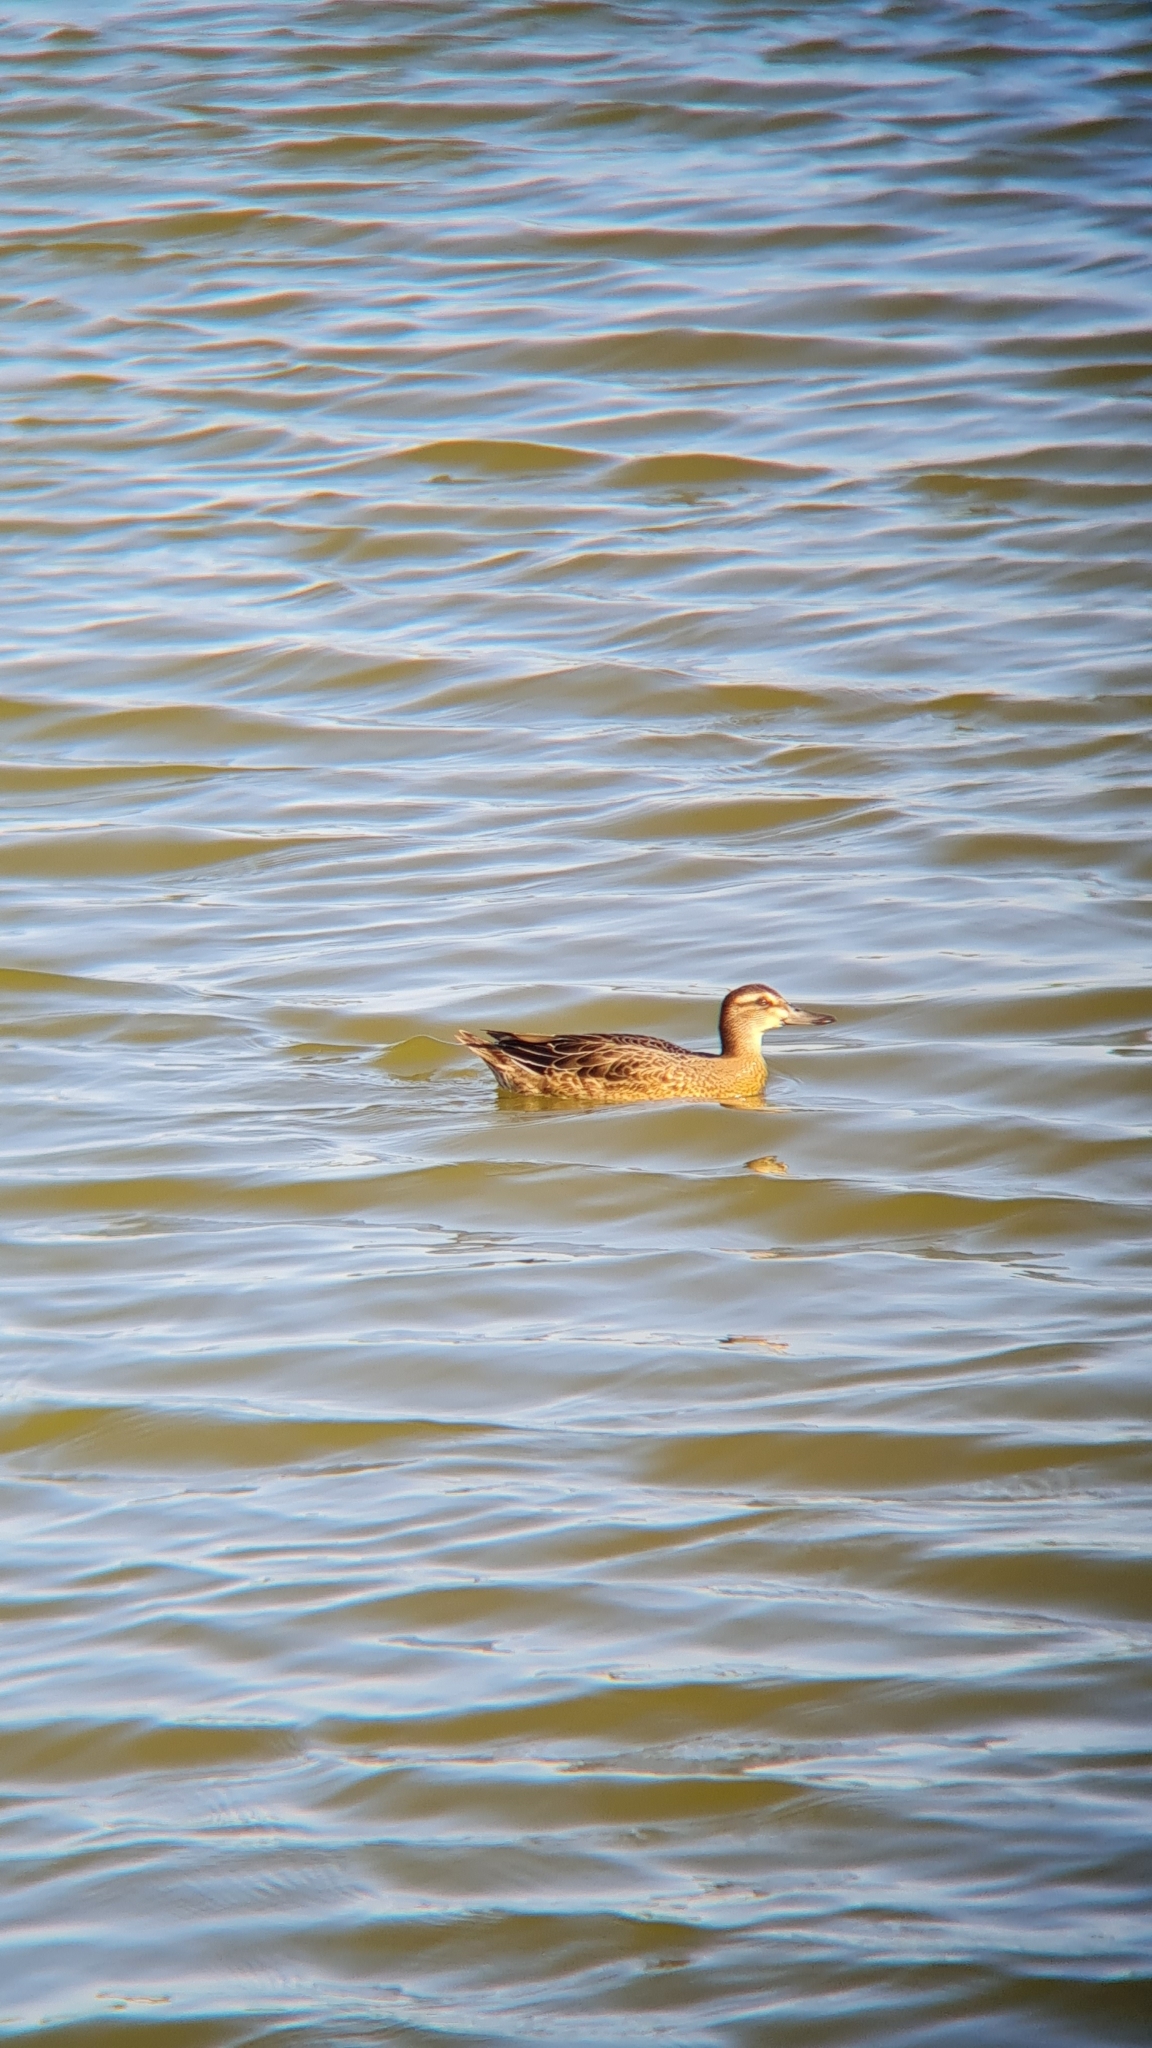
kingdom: Animalia
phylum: Chordata
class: Aves
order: Anseriformes
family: Anatidae
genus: Spatula
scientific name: Spatula querquedula
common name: Garganey
